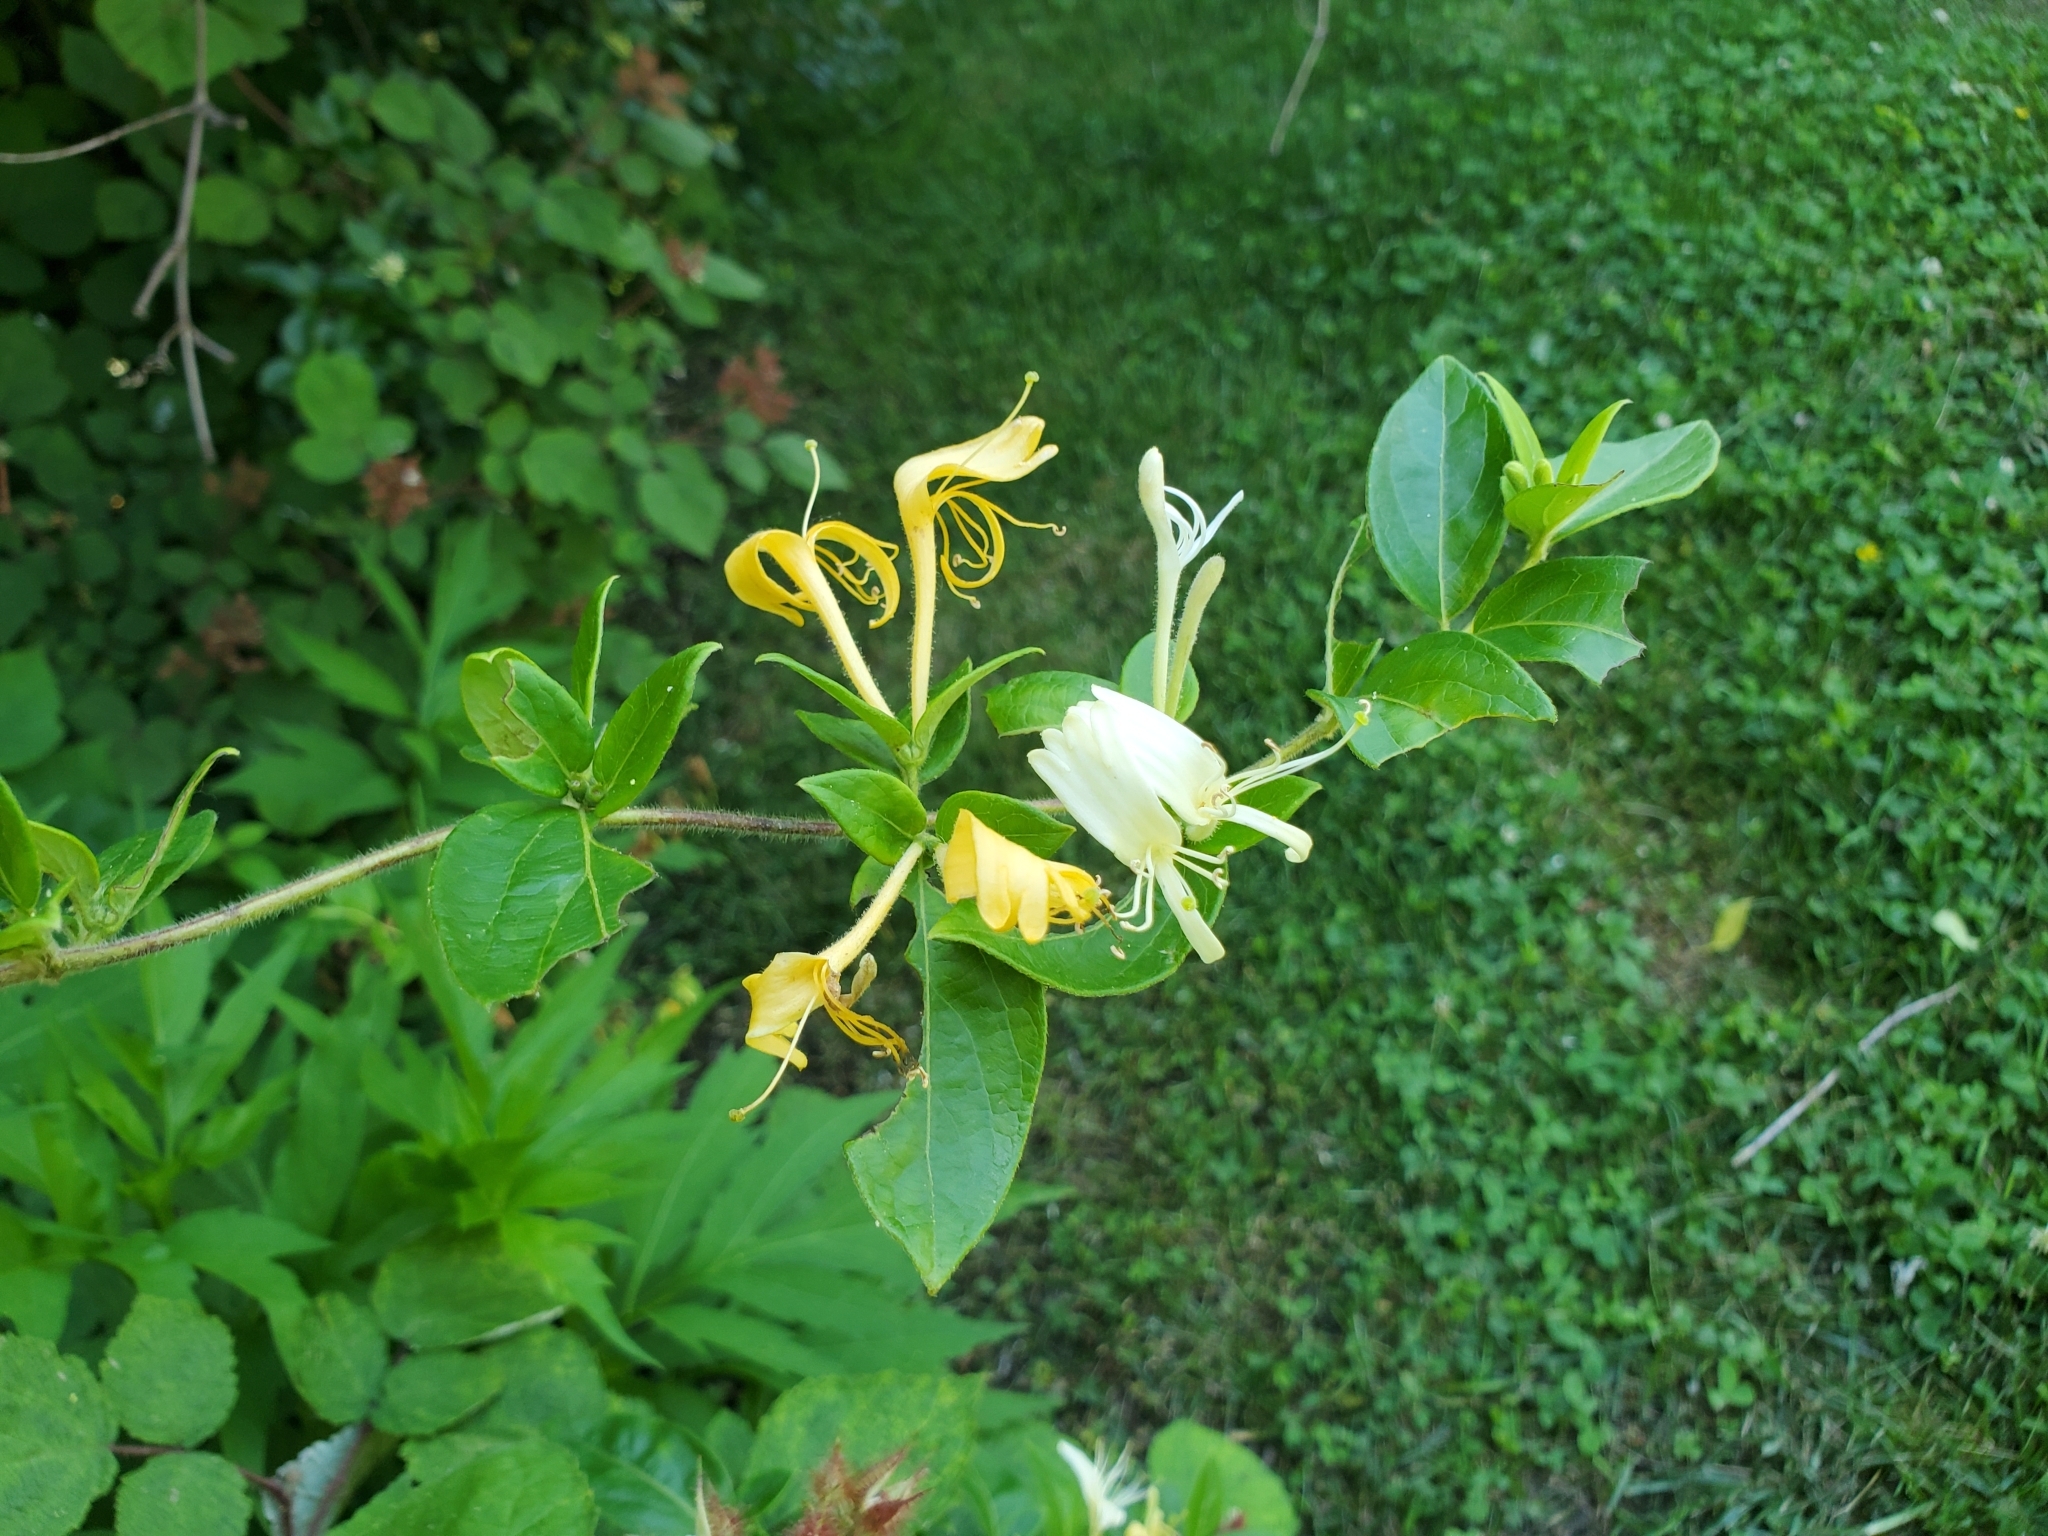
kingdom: Plantae
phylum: Tracheophyta
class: Magnoliopsida
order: Dipsacales
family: Caprifoliaceae
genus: Lonicera
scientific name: Lonicera japonica
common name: Japanese honeysuckle
